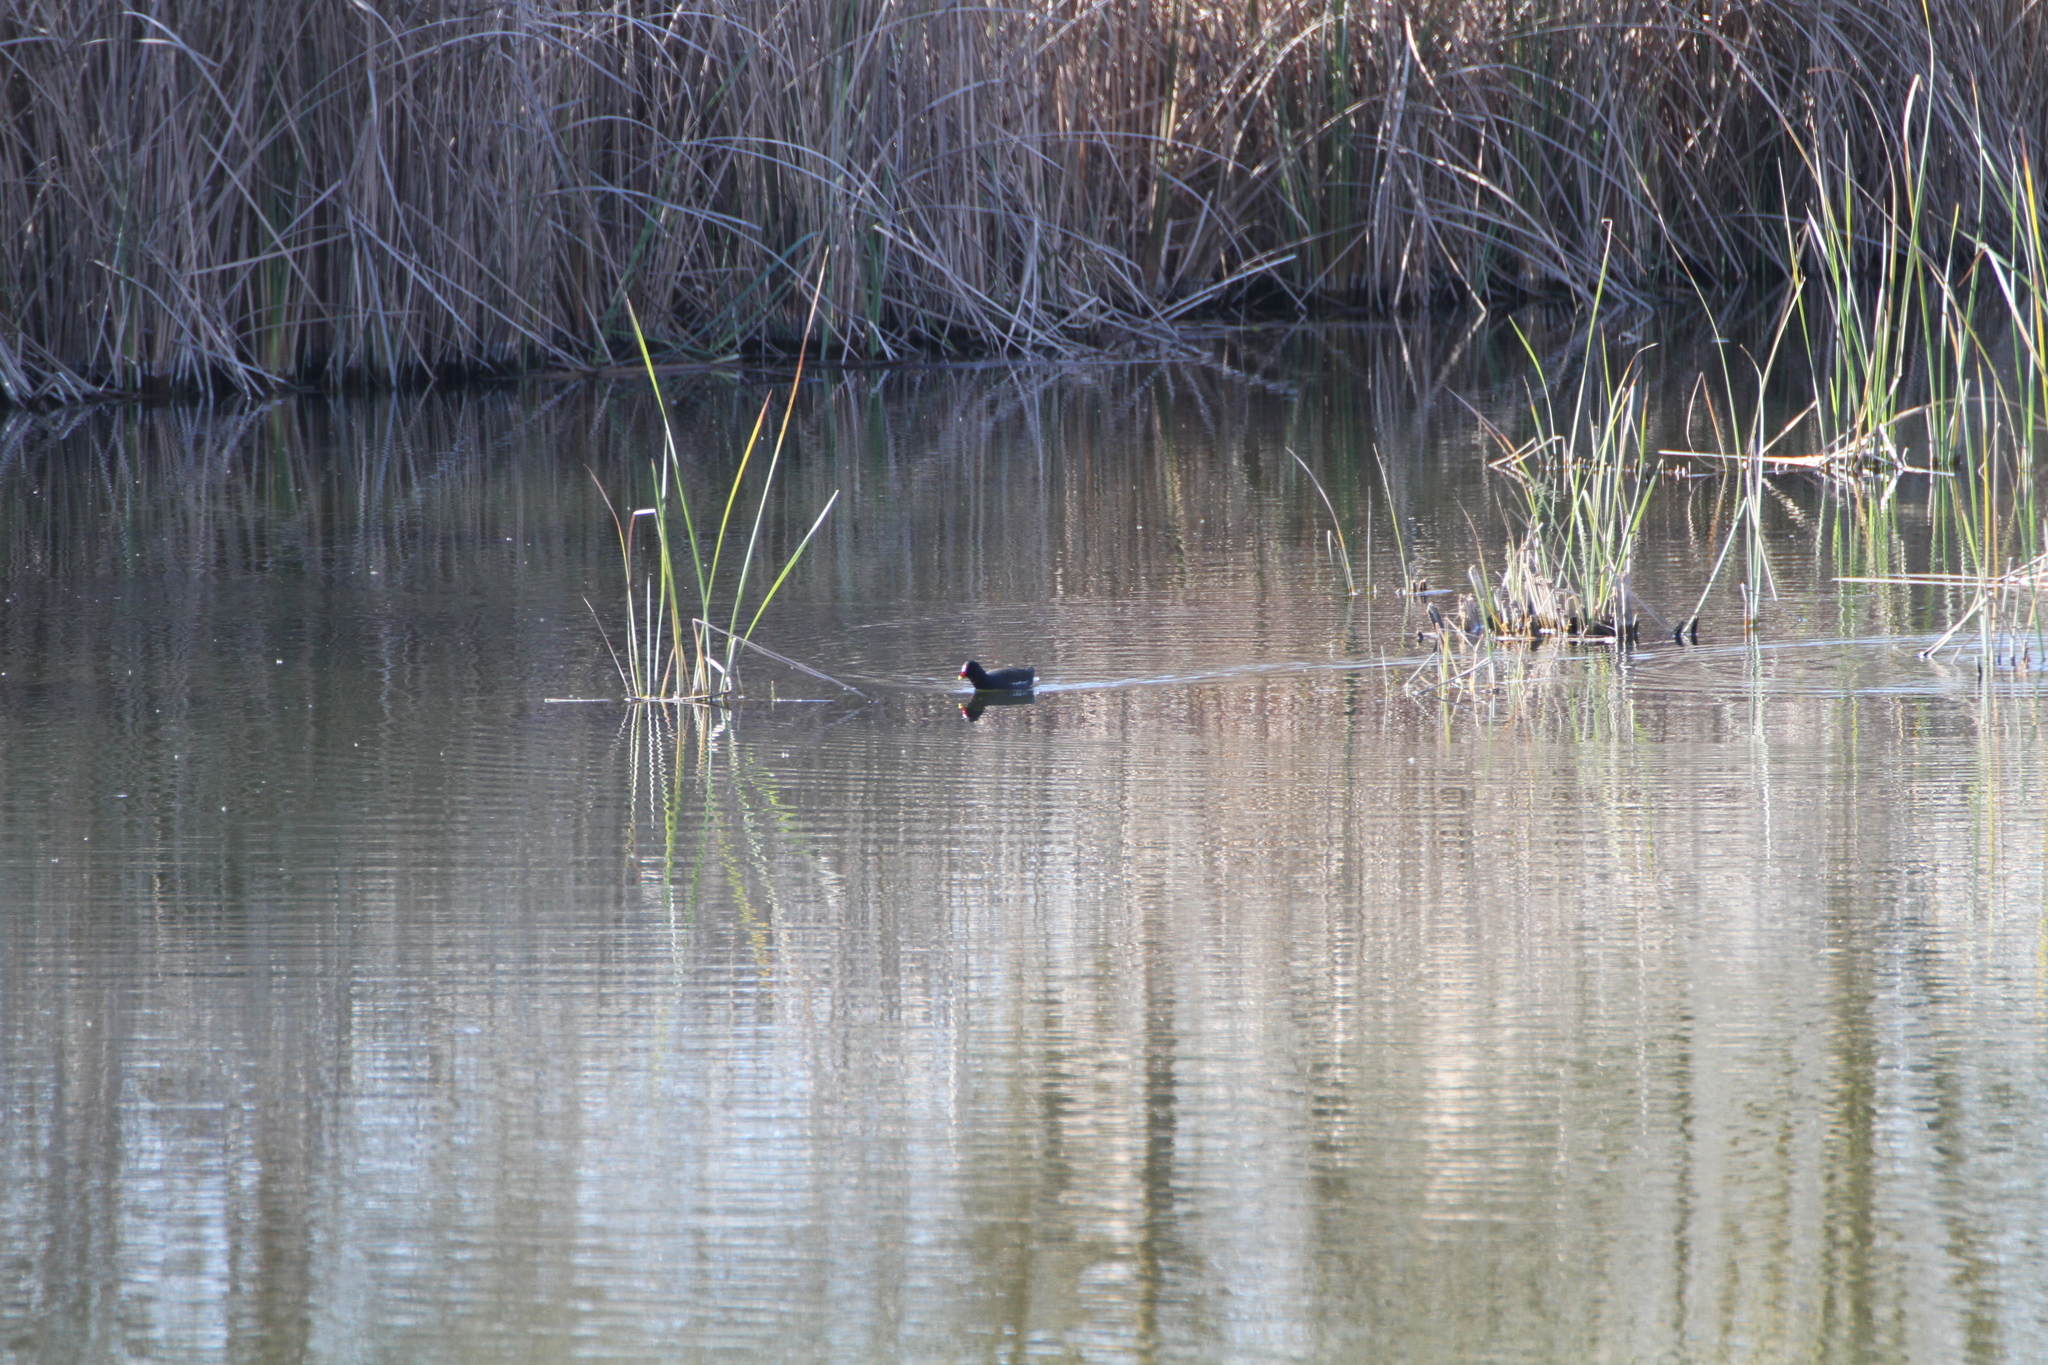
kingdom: Animalia
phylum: Chordata
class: Aves
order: Gruiformes
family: Rallidae
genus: Gallinula
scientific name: Gallinula chloropus
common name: Common moorhen
